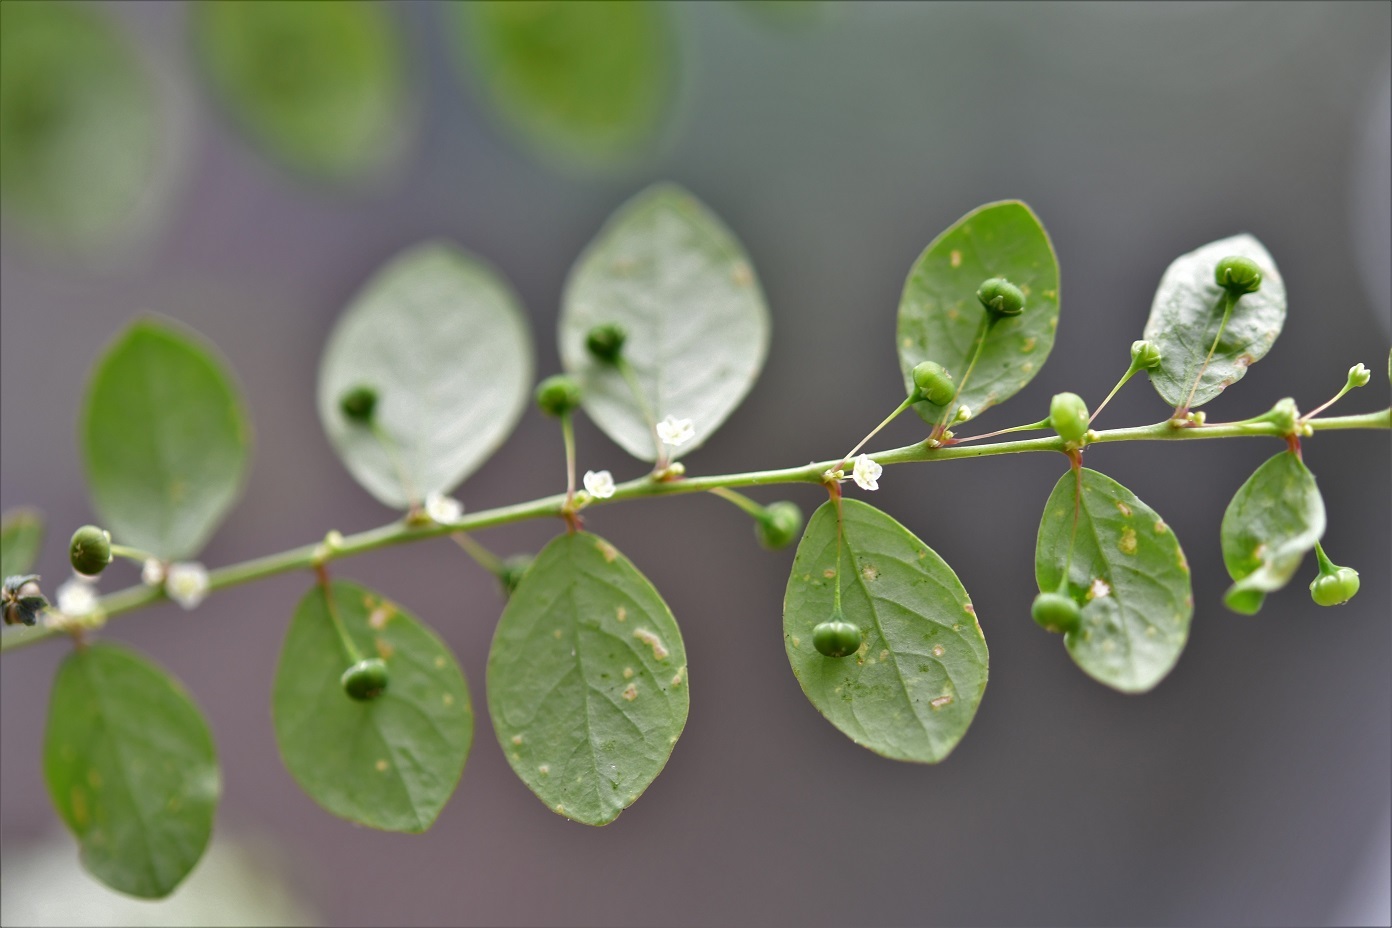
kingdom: Plantae
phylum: Tracheophyta
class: Magnoliopsida
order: Malpighiales
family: Phyllanthaceae
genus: Phyllanthus
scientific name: Phyllanthus tenellus
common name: Mascarene island leaf-flower
